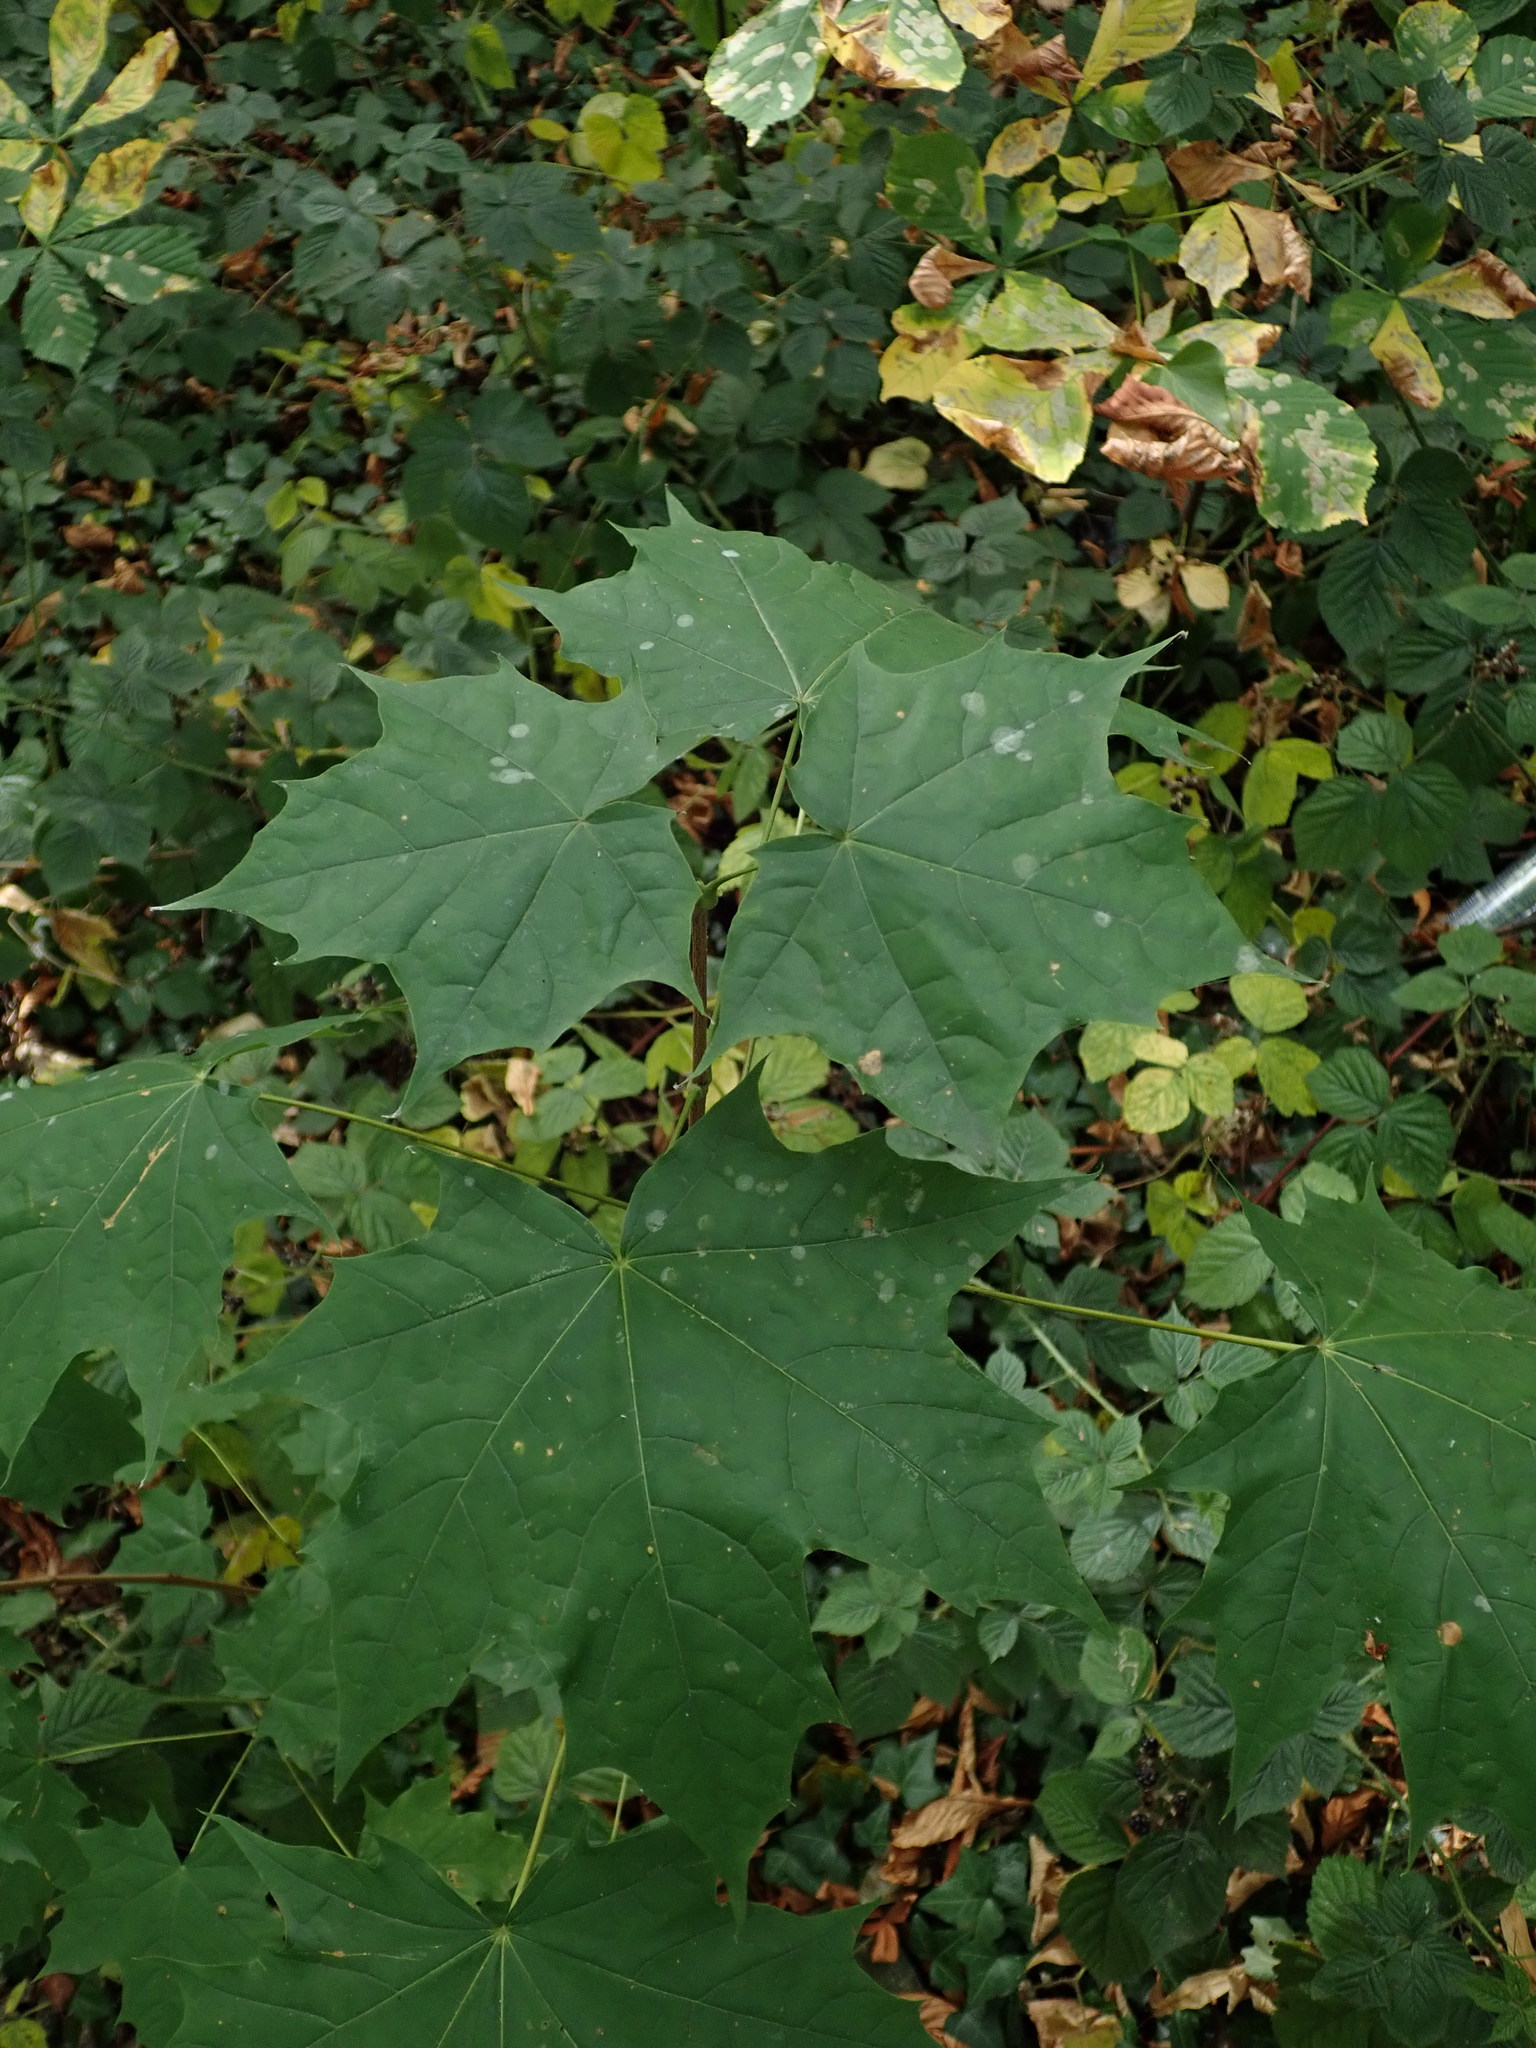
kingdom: Plantae
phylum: Tracheophyta
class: Magnoliopsida
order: Sapindales
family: Sapindaceae
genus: Acer
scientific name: Acer platanoides
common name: Norway maple
